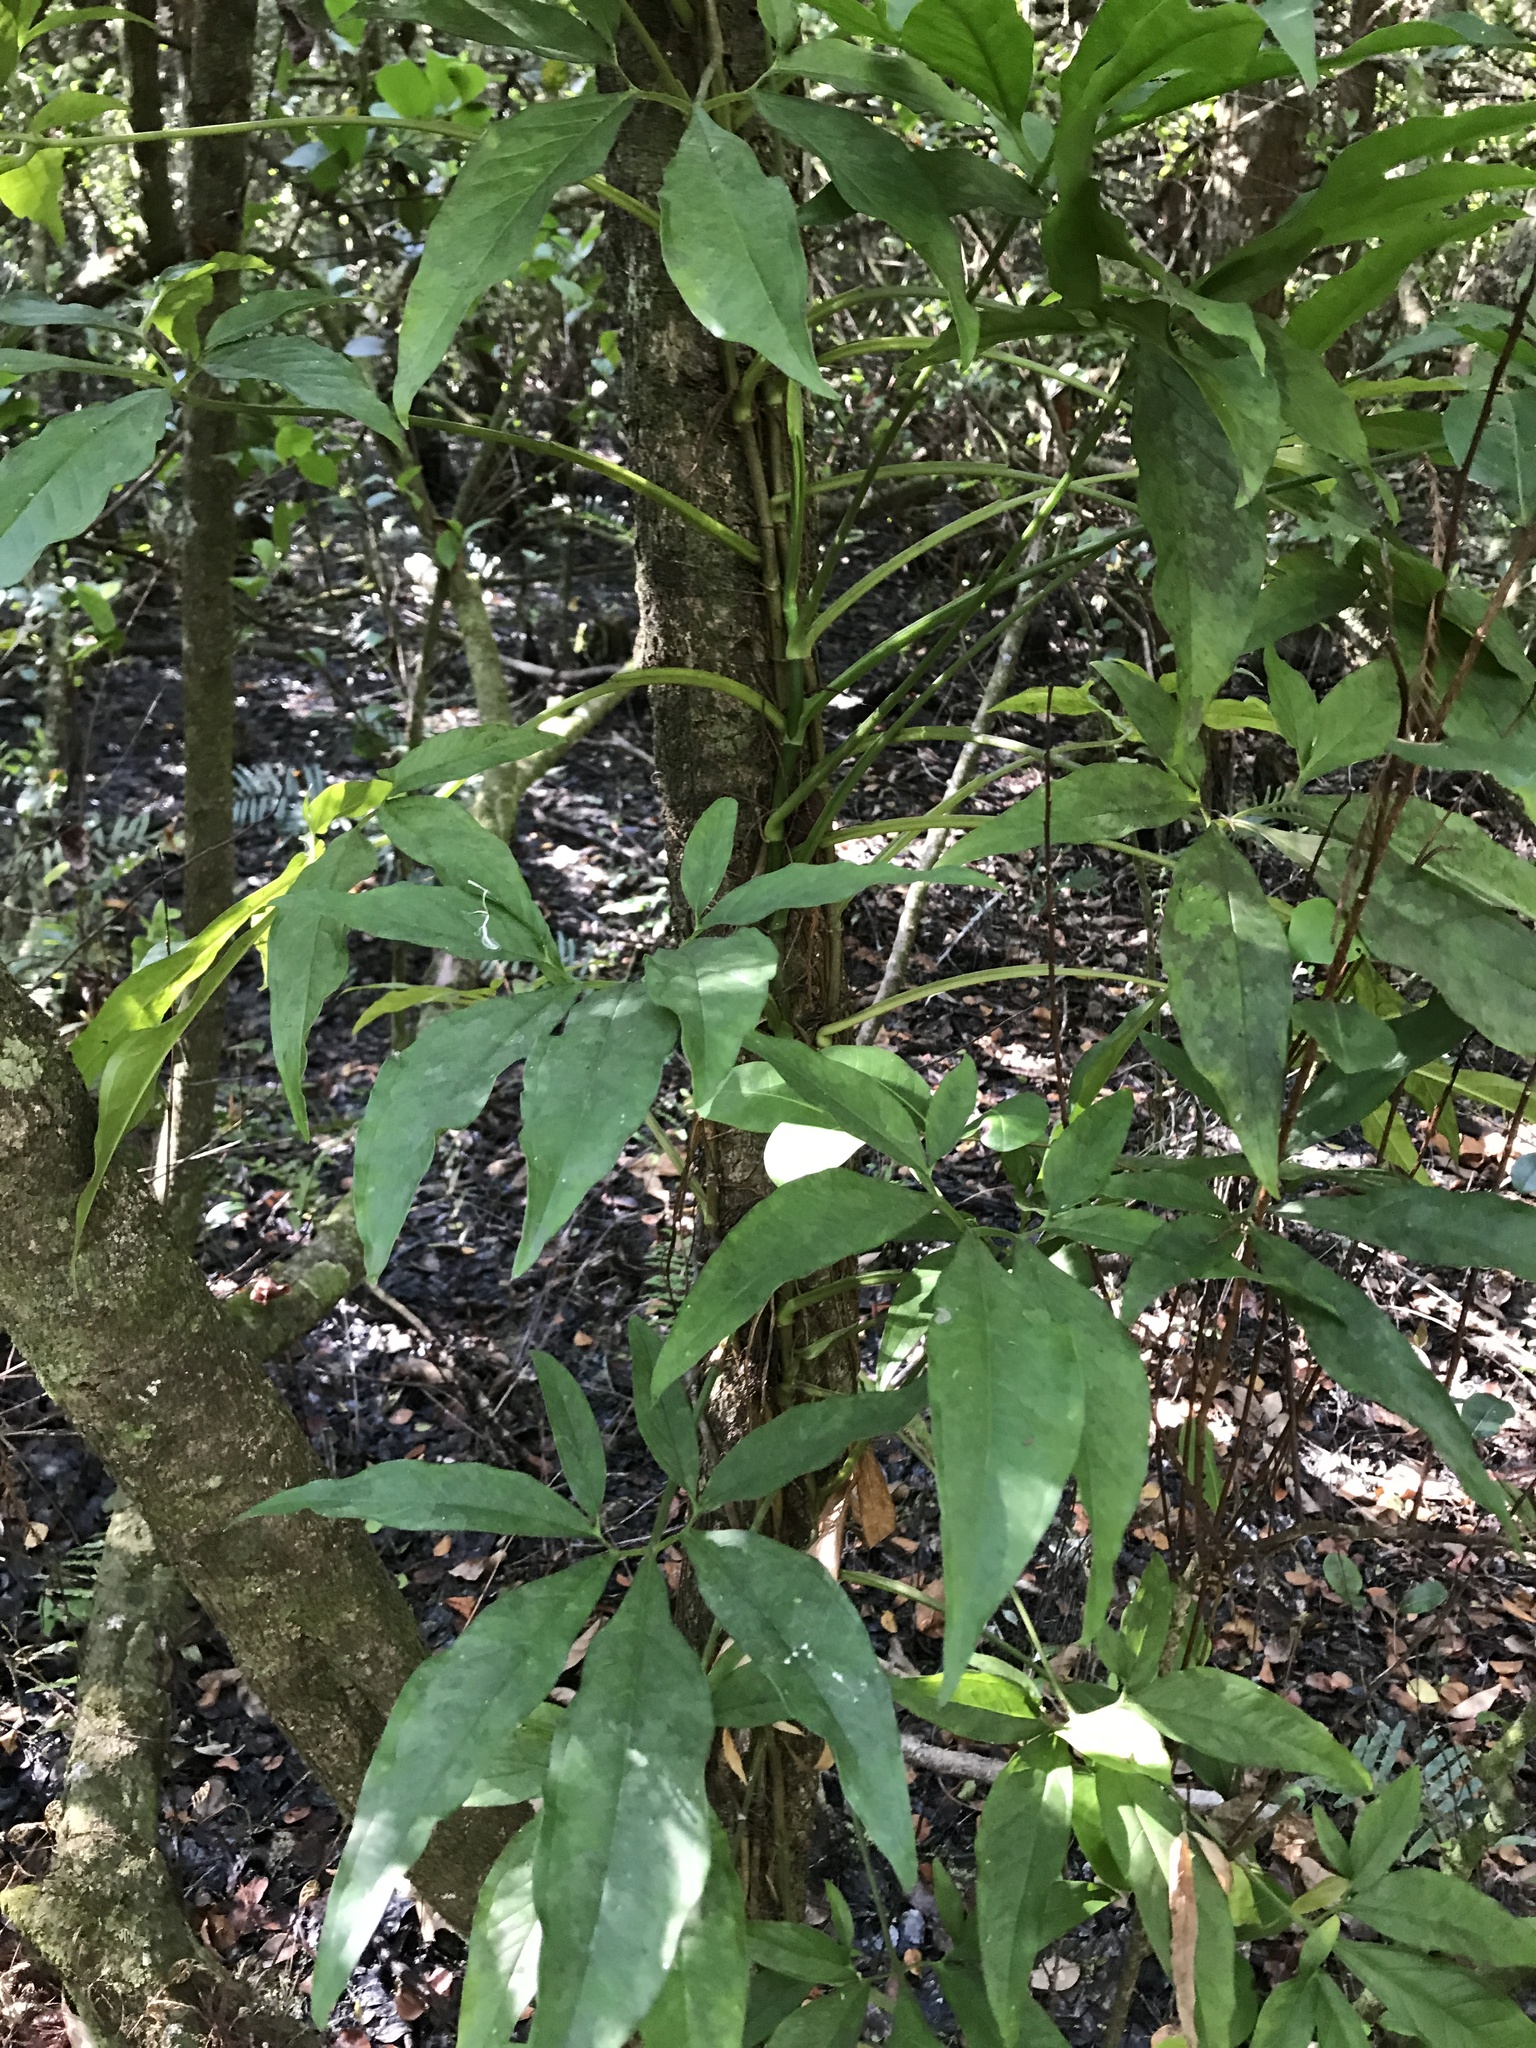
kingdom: Plantae
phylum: Tracheophyta
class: Liliopsida
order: Alismatales
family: Araceae
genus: Syngonium
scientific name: Syngonium podophyllum
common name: American evergreen
